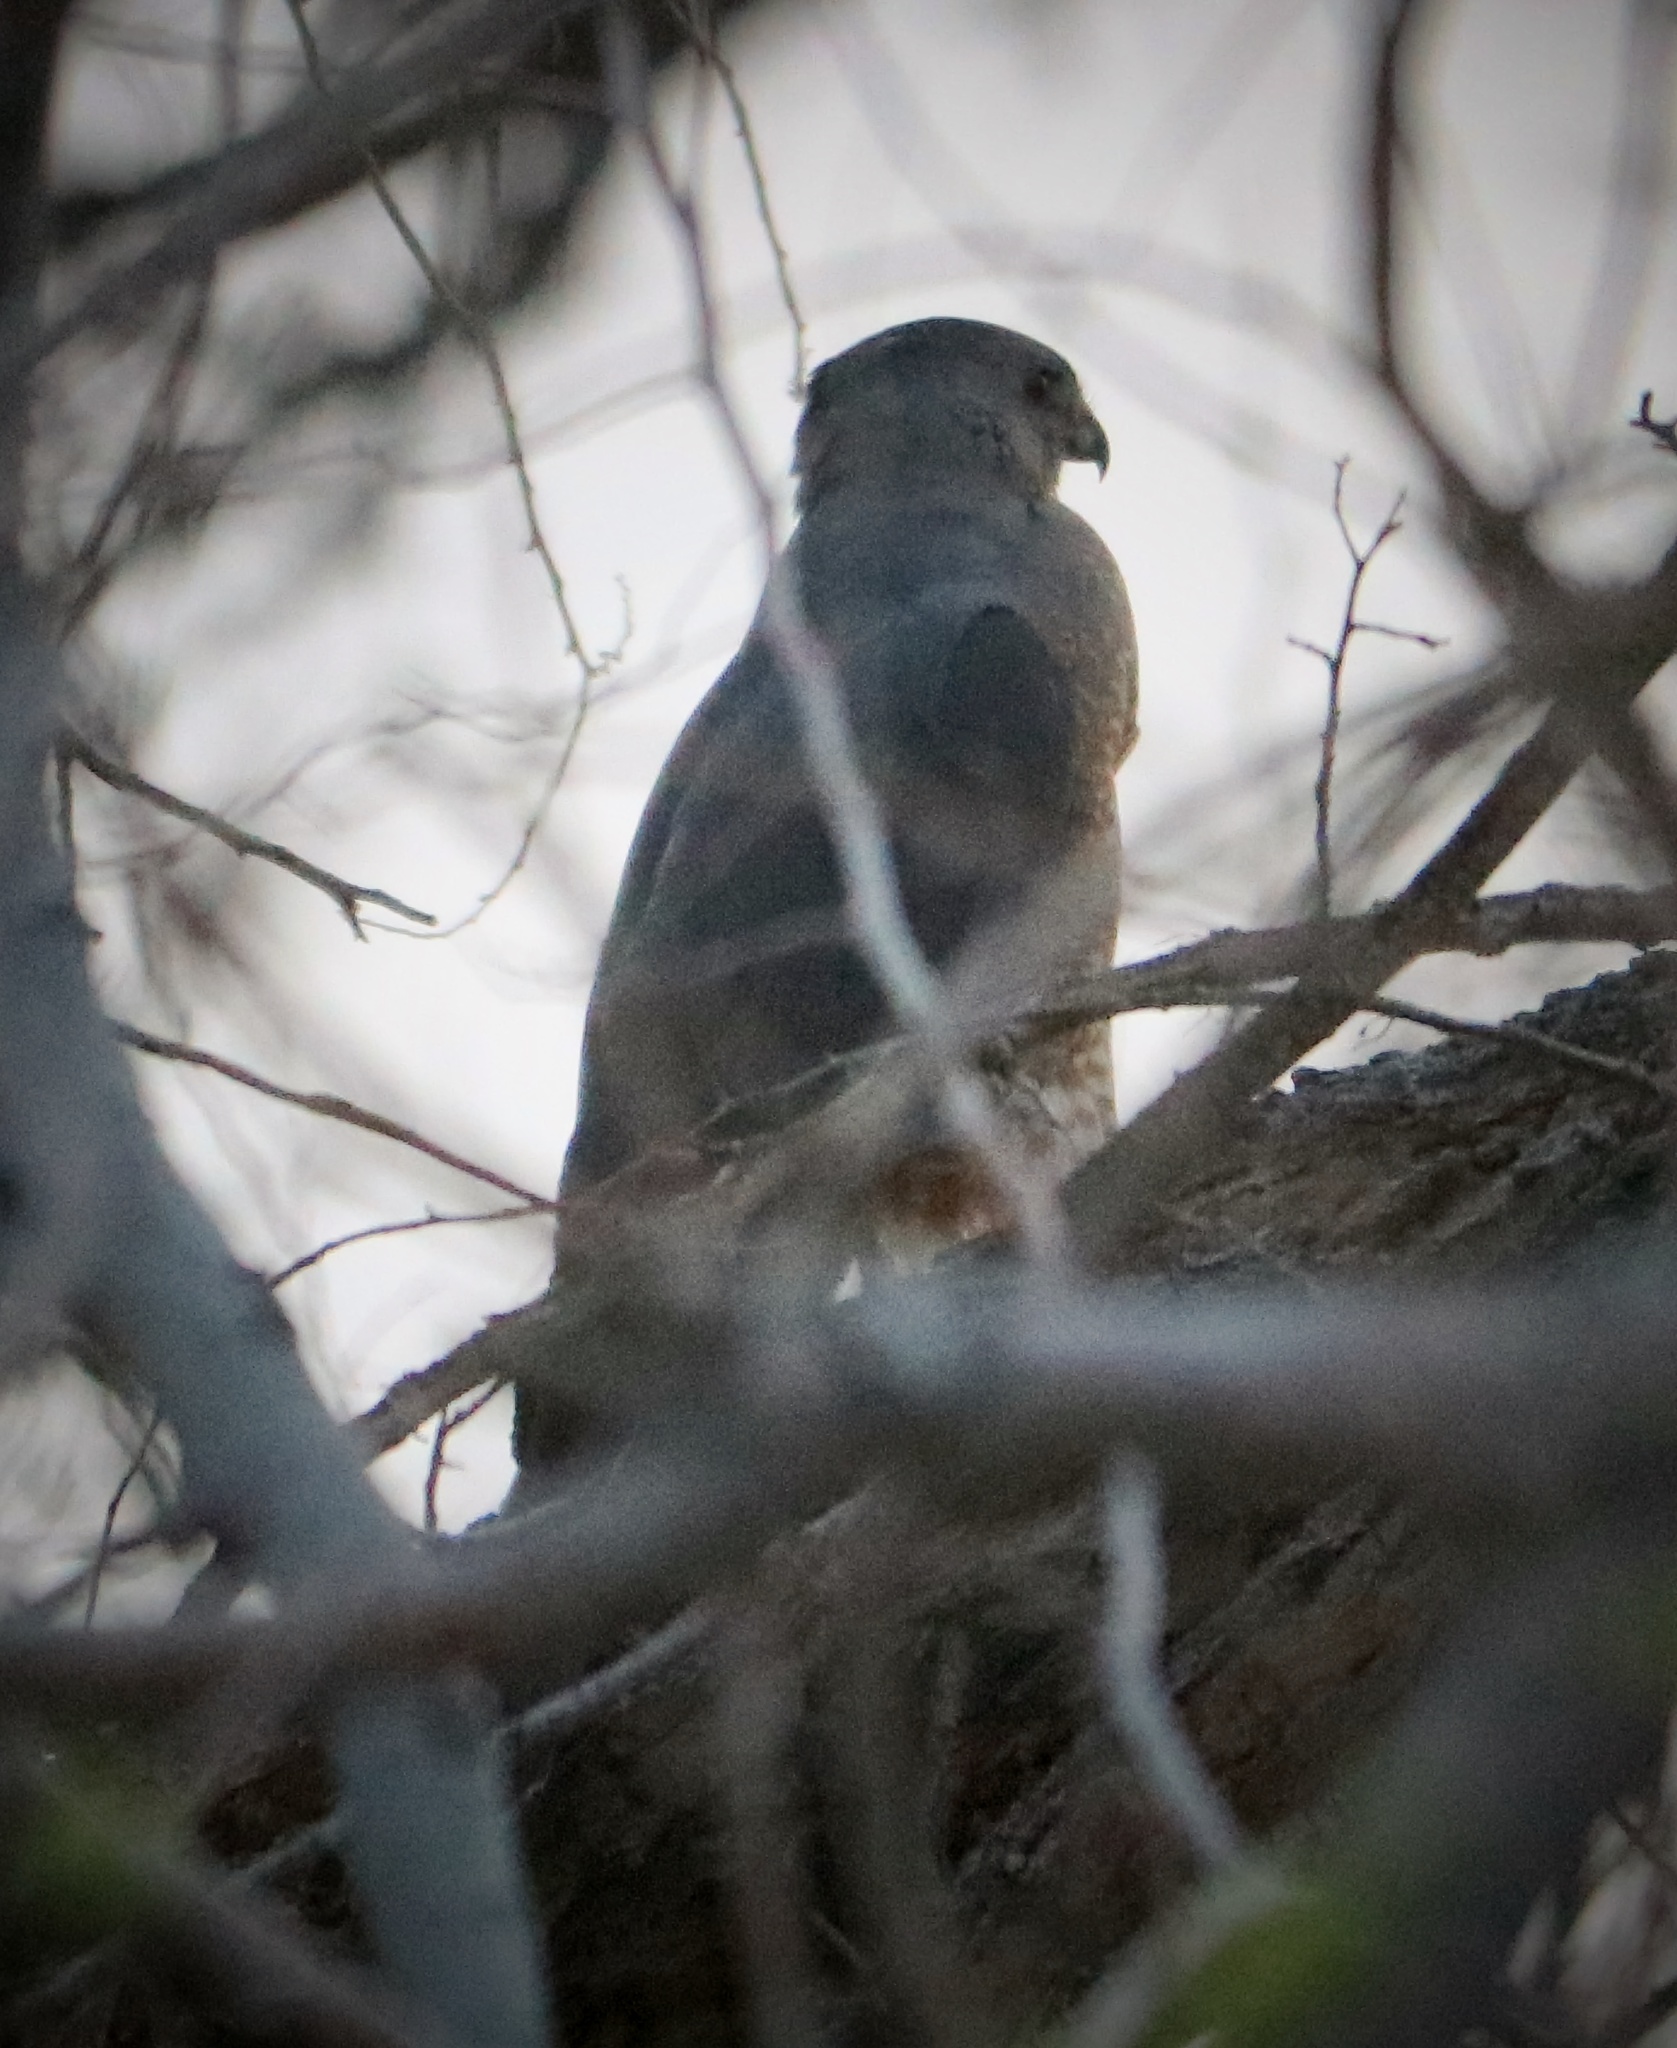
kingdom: Animalia
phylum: Chordata
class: Aves
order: Accipitriformes
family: Accipitridae
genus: Accipiter
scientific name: Accipiter cooperii
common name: Cooper's hawk
